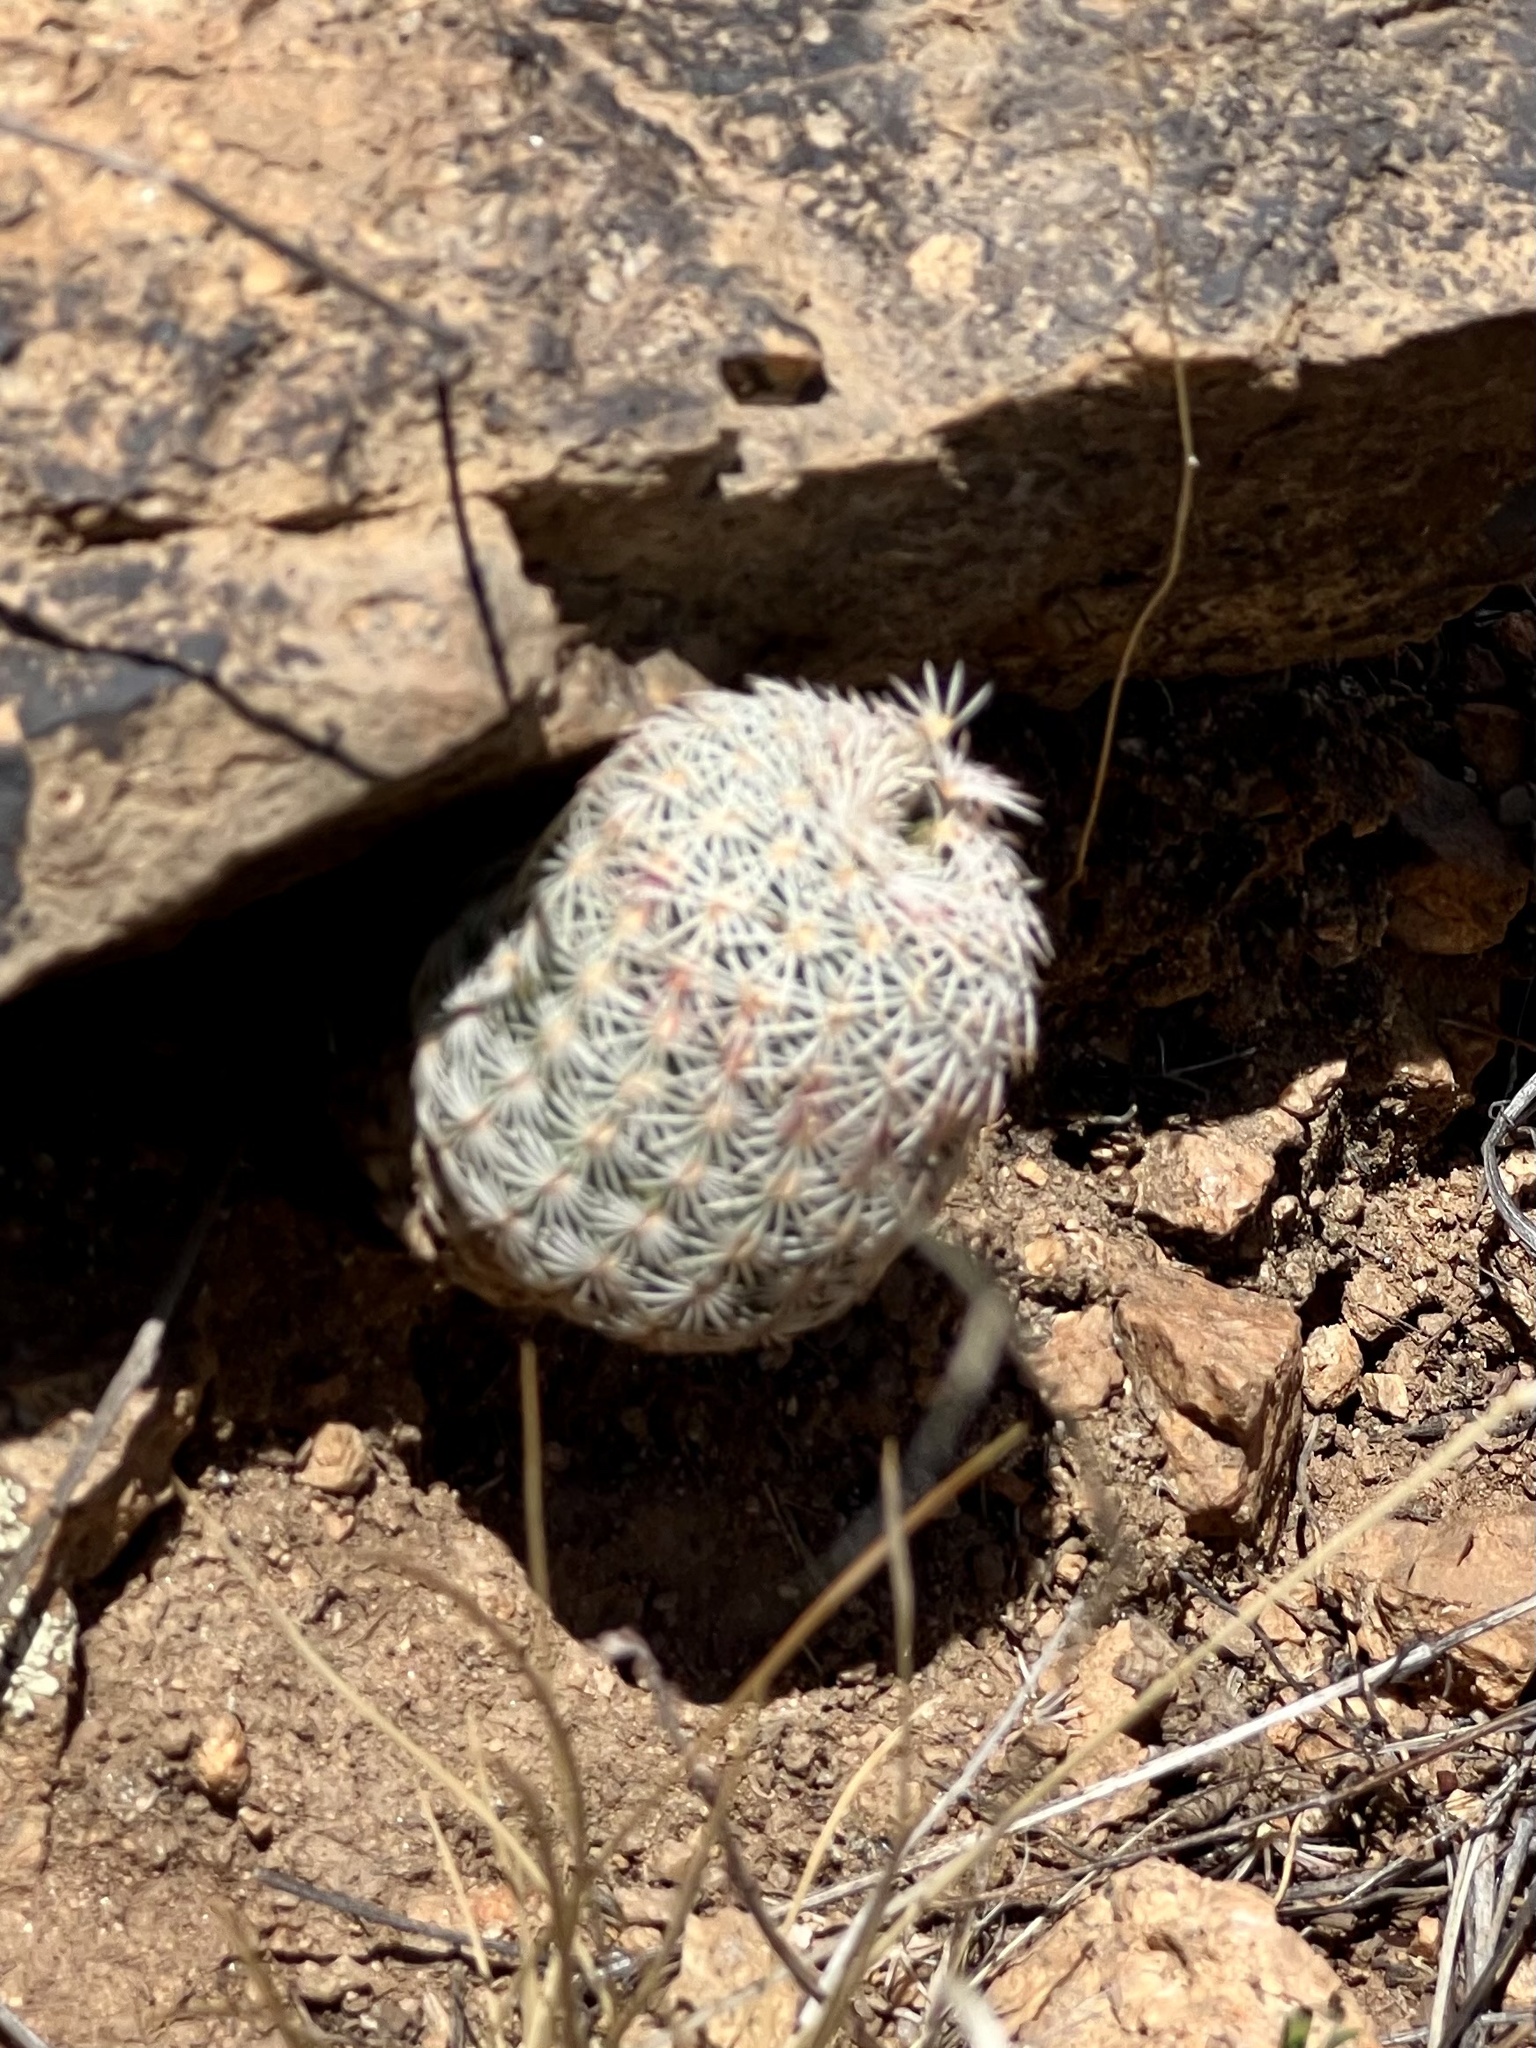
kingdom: Plantae
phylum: Tracheophyta
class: Magnoliopsida
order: Caryophyllales
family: Cactaceae
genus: Echinocereus
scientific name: Echinocereus rigidissimus
